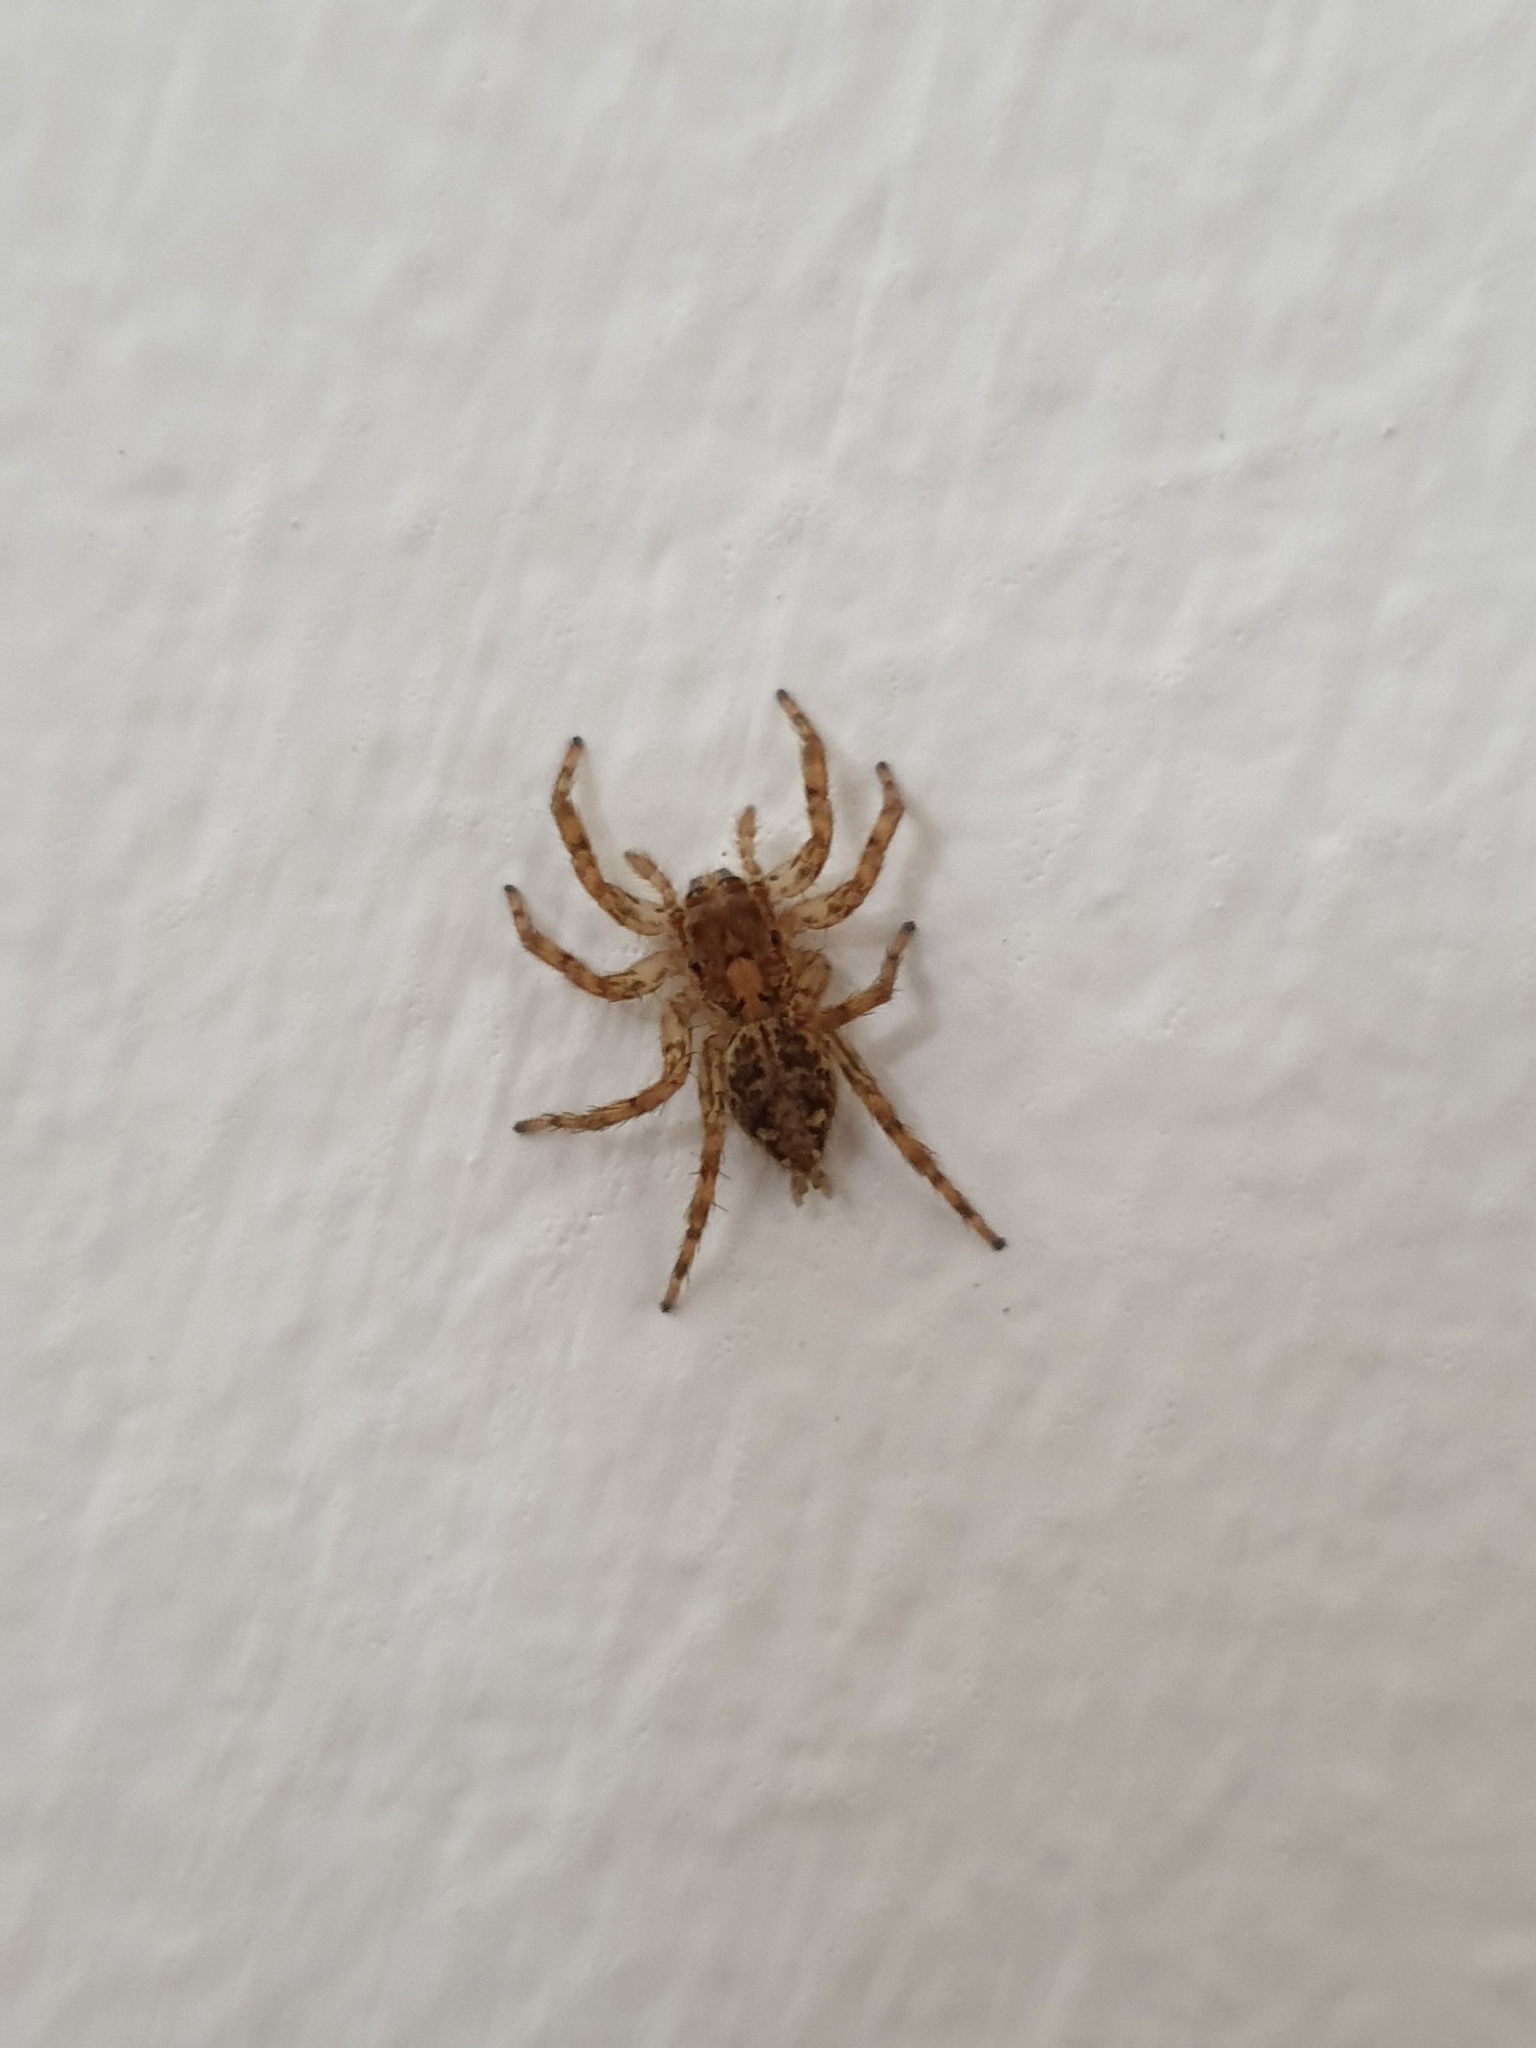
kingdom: Animalia
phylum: Arthropoda
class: Arachnida
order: Araneae
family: Salticidae
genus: Plexippus
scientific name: Plexippus
